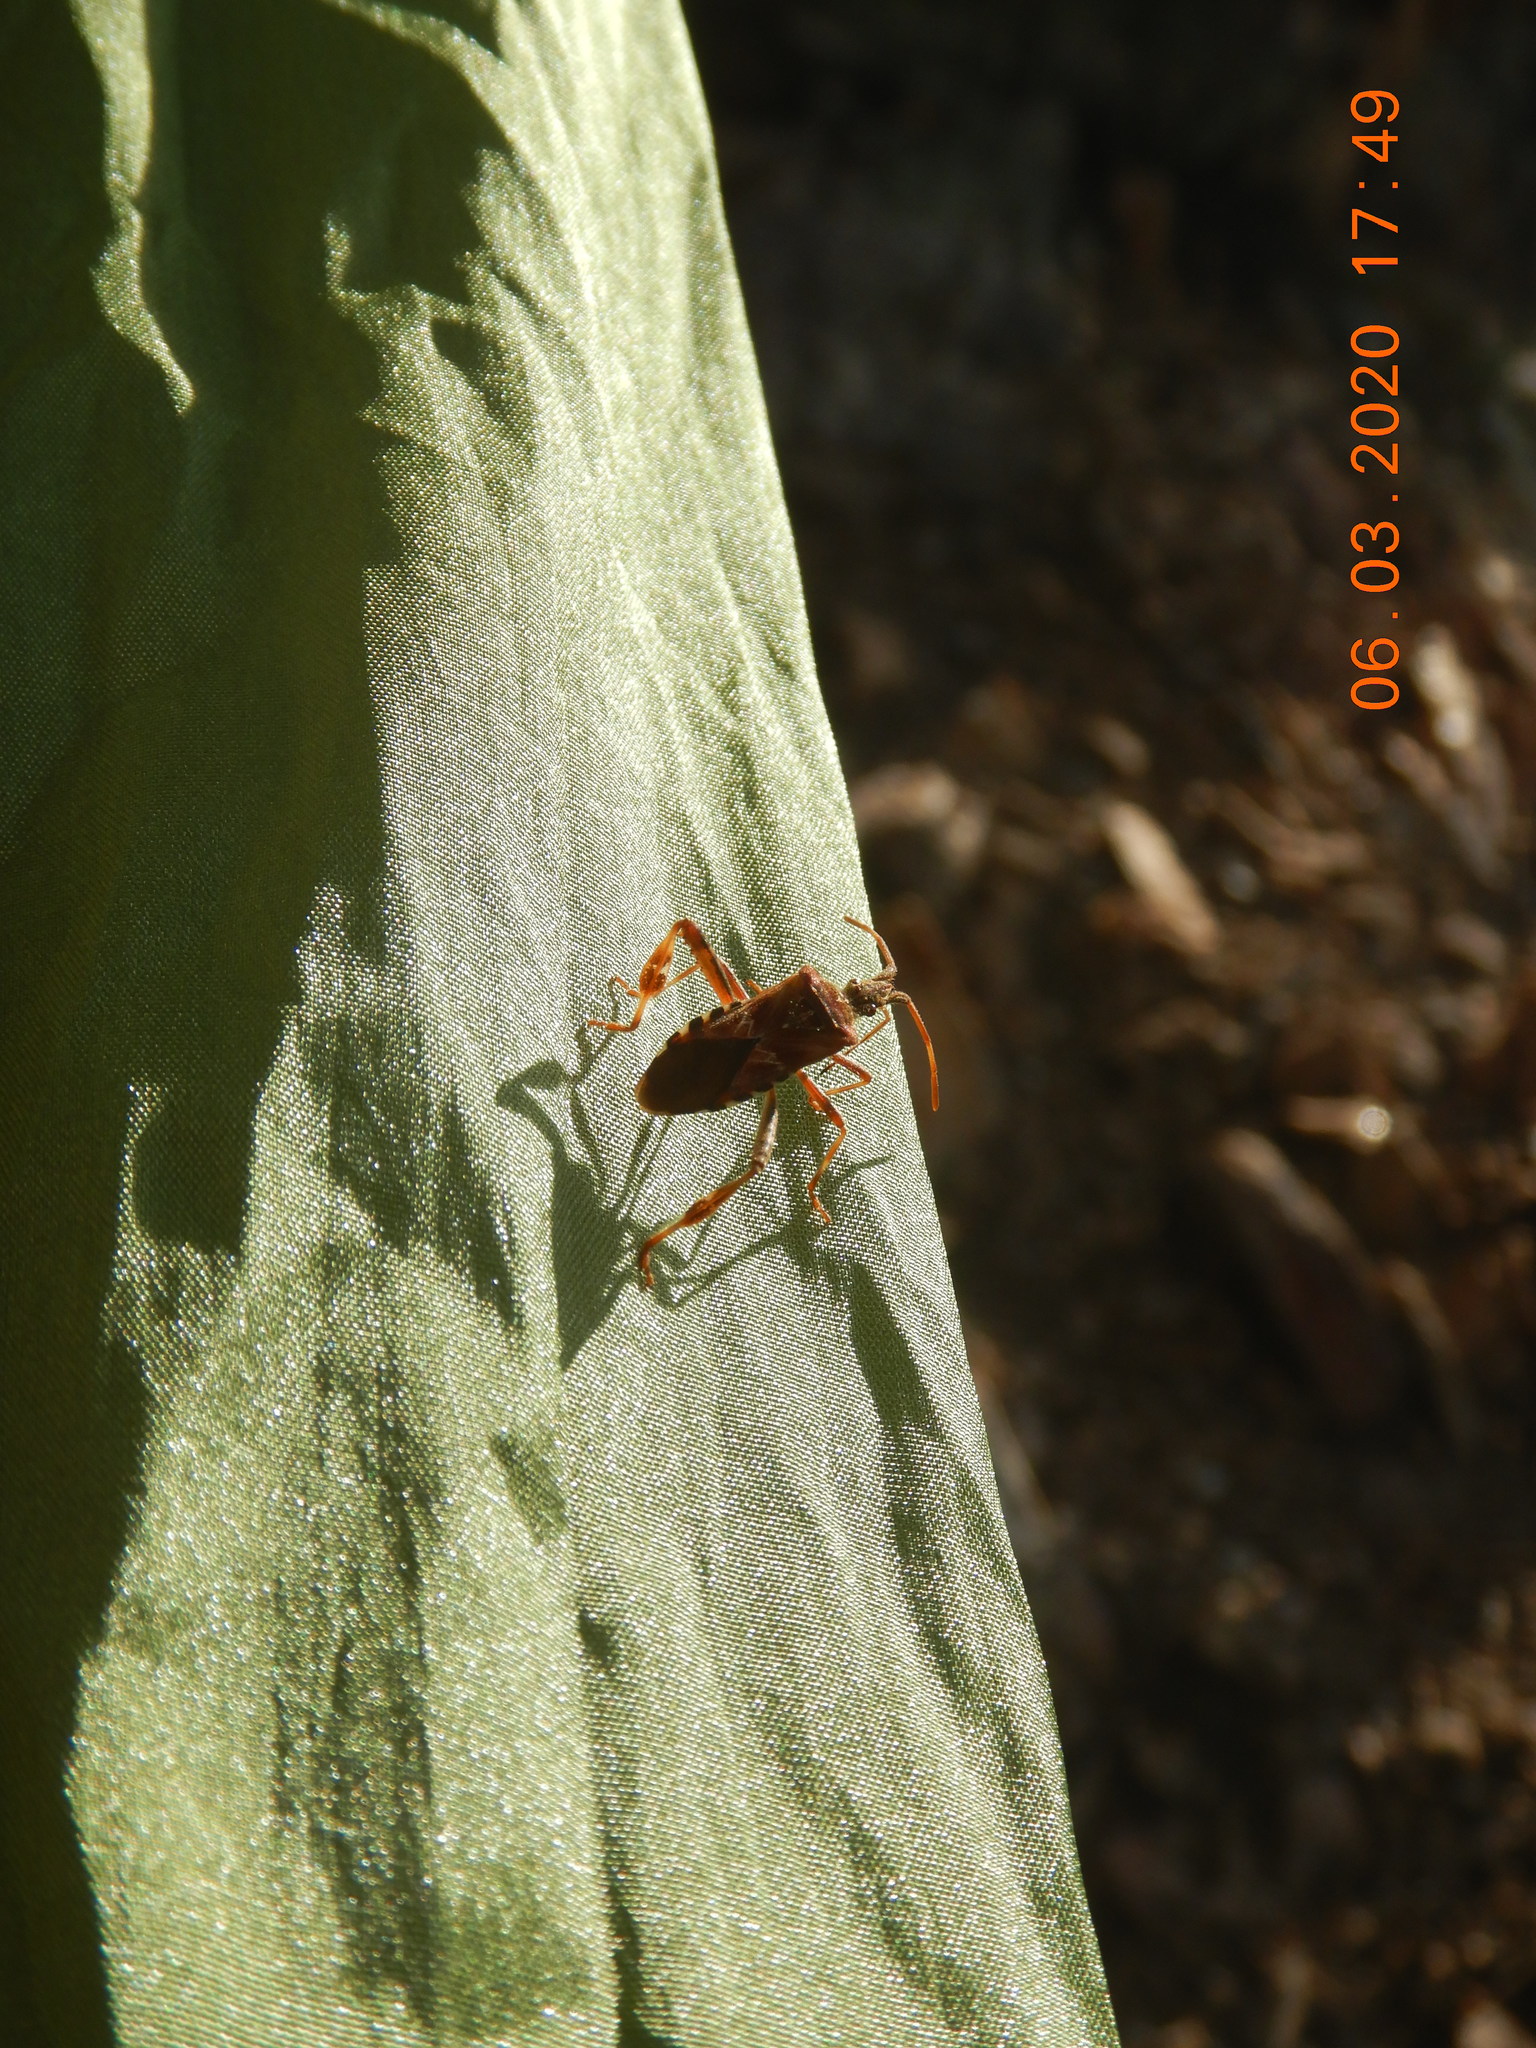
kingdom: Animalia
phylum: Arthropoda
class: Insecta
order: Hemiptera
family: Coreidae
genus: Leptoglossus
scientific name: Leptoglossus occidentalis
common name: Western conifer-seed bug
